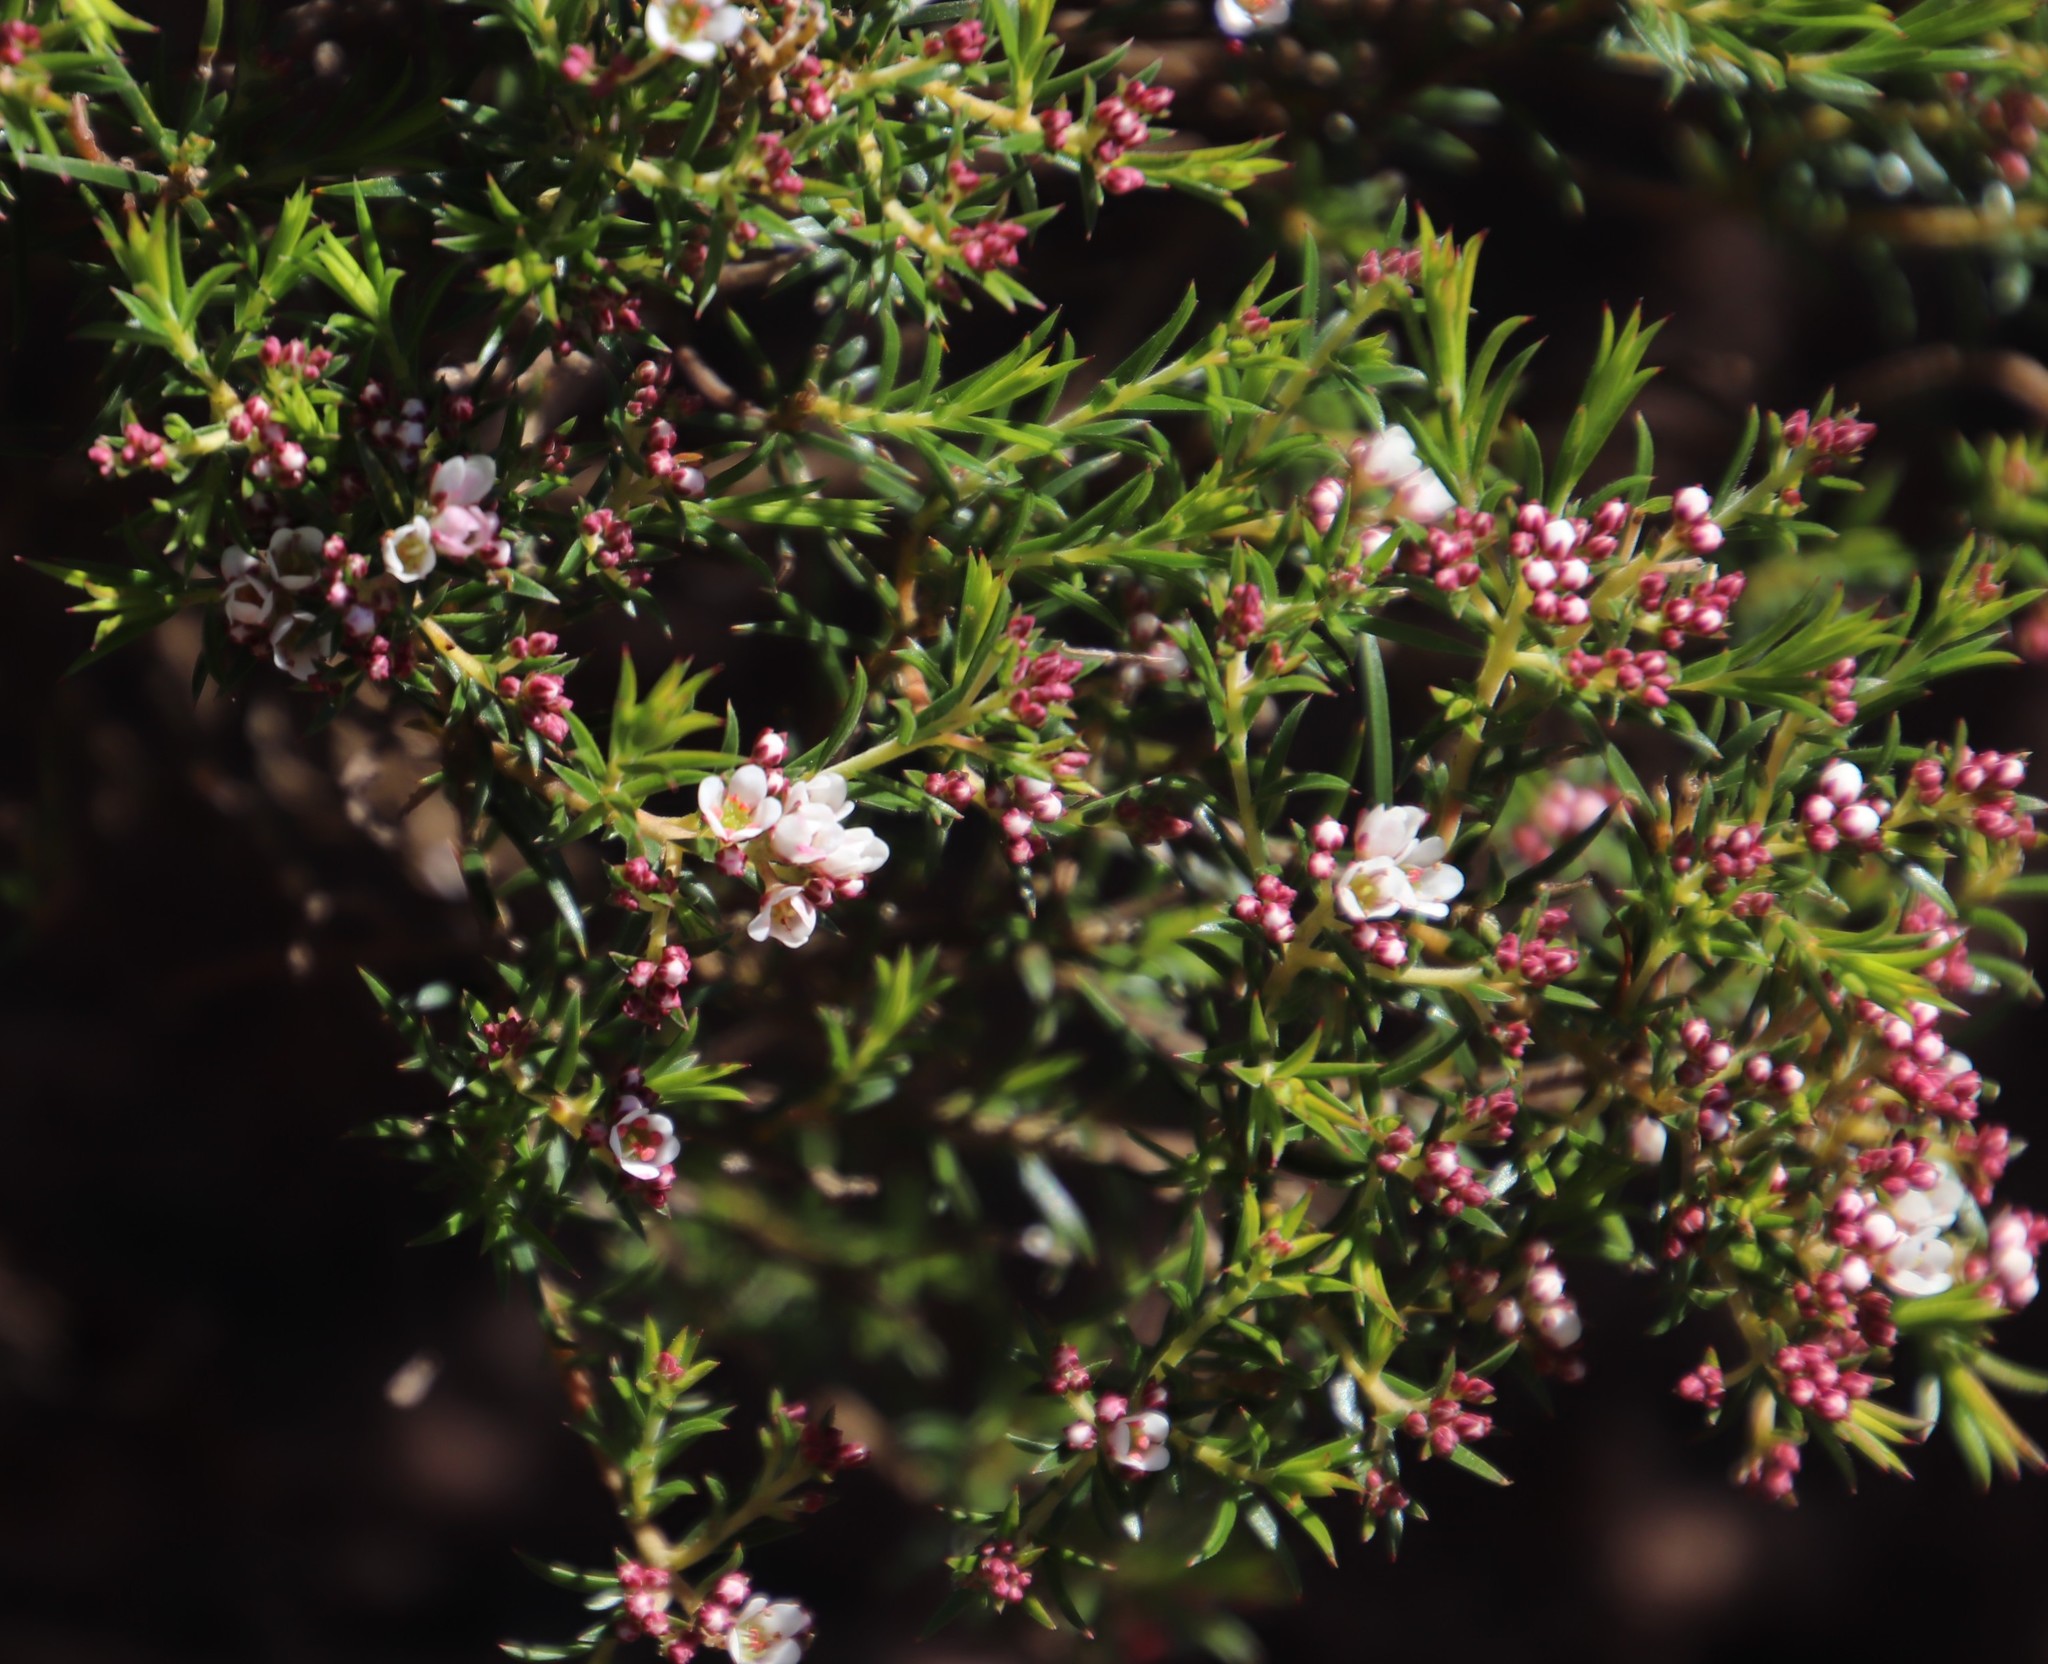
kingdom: Plantae
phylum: Tracheophyta
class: Magnoliopsida
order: Sapindales
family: Rutaceae
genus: Diosma
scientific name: Diosma hirsuta
